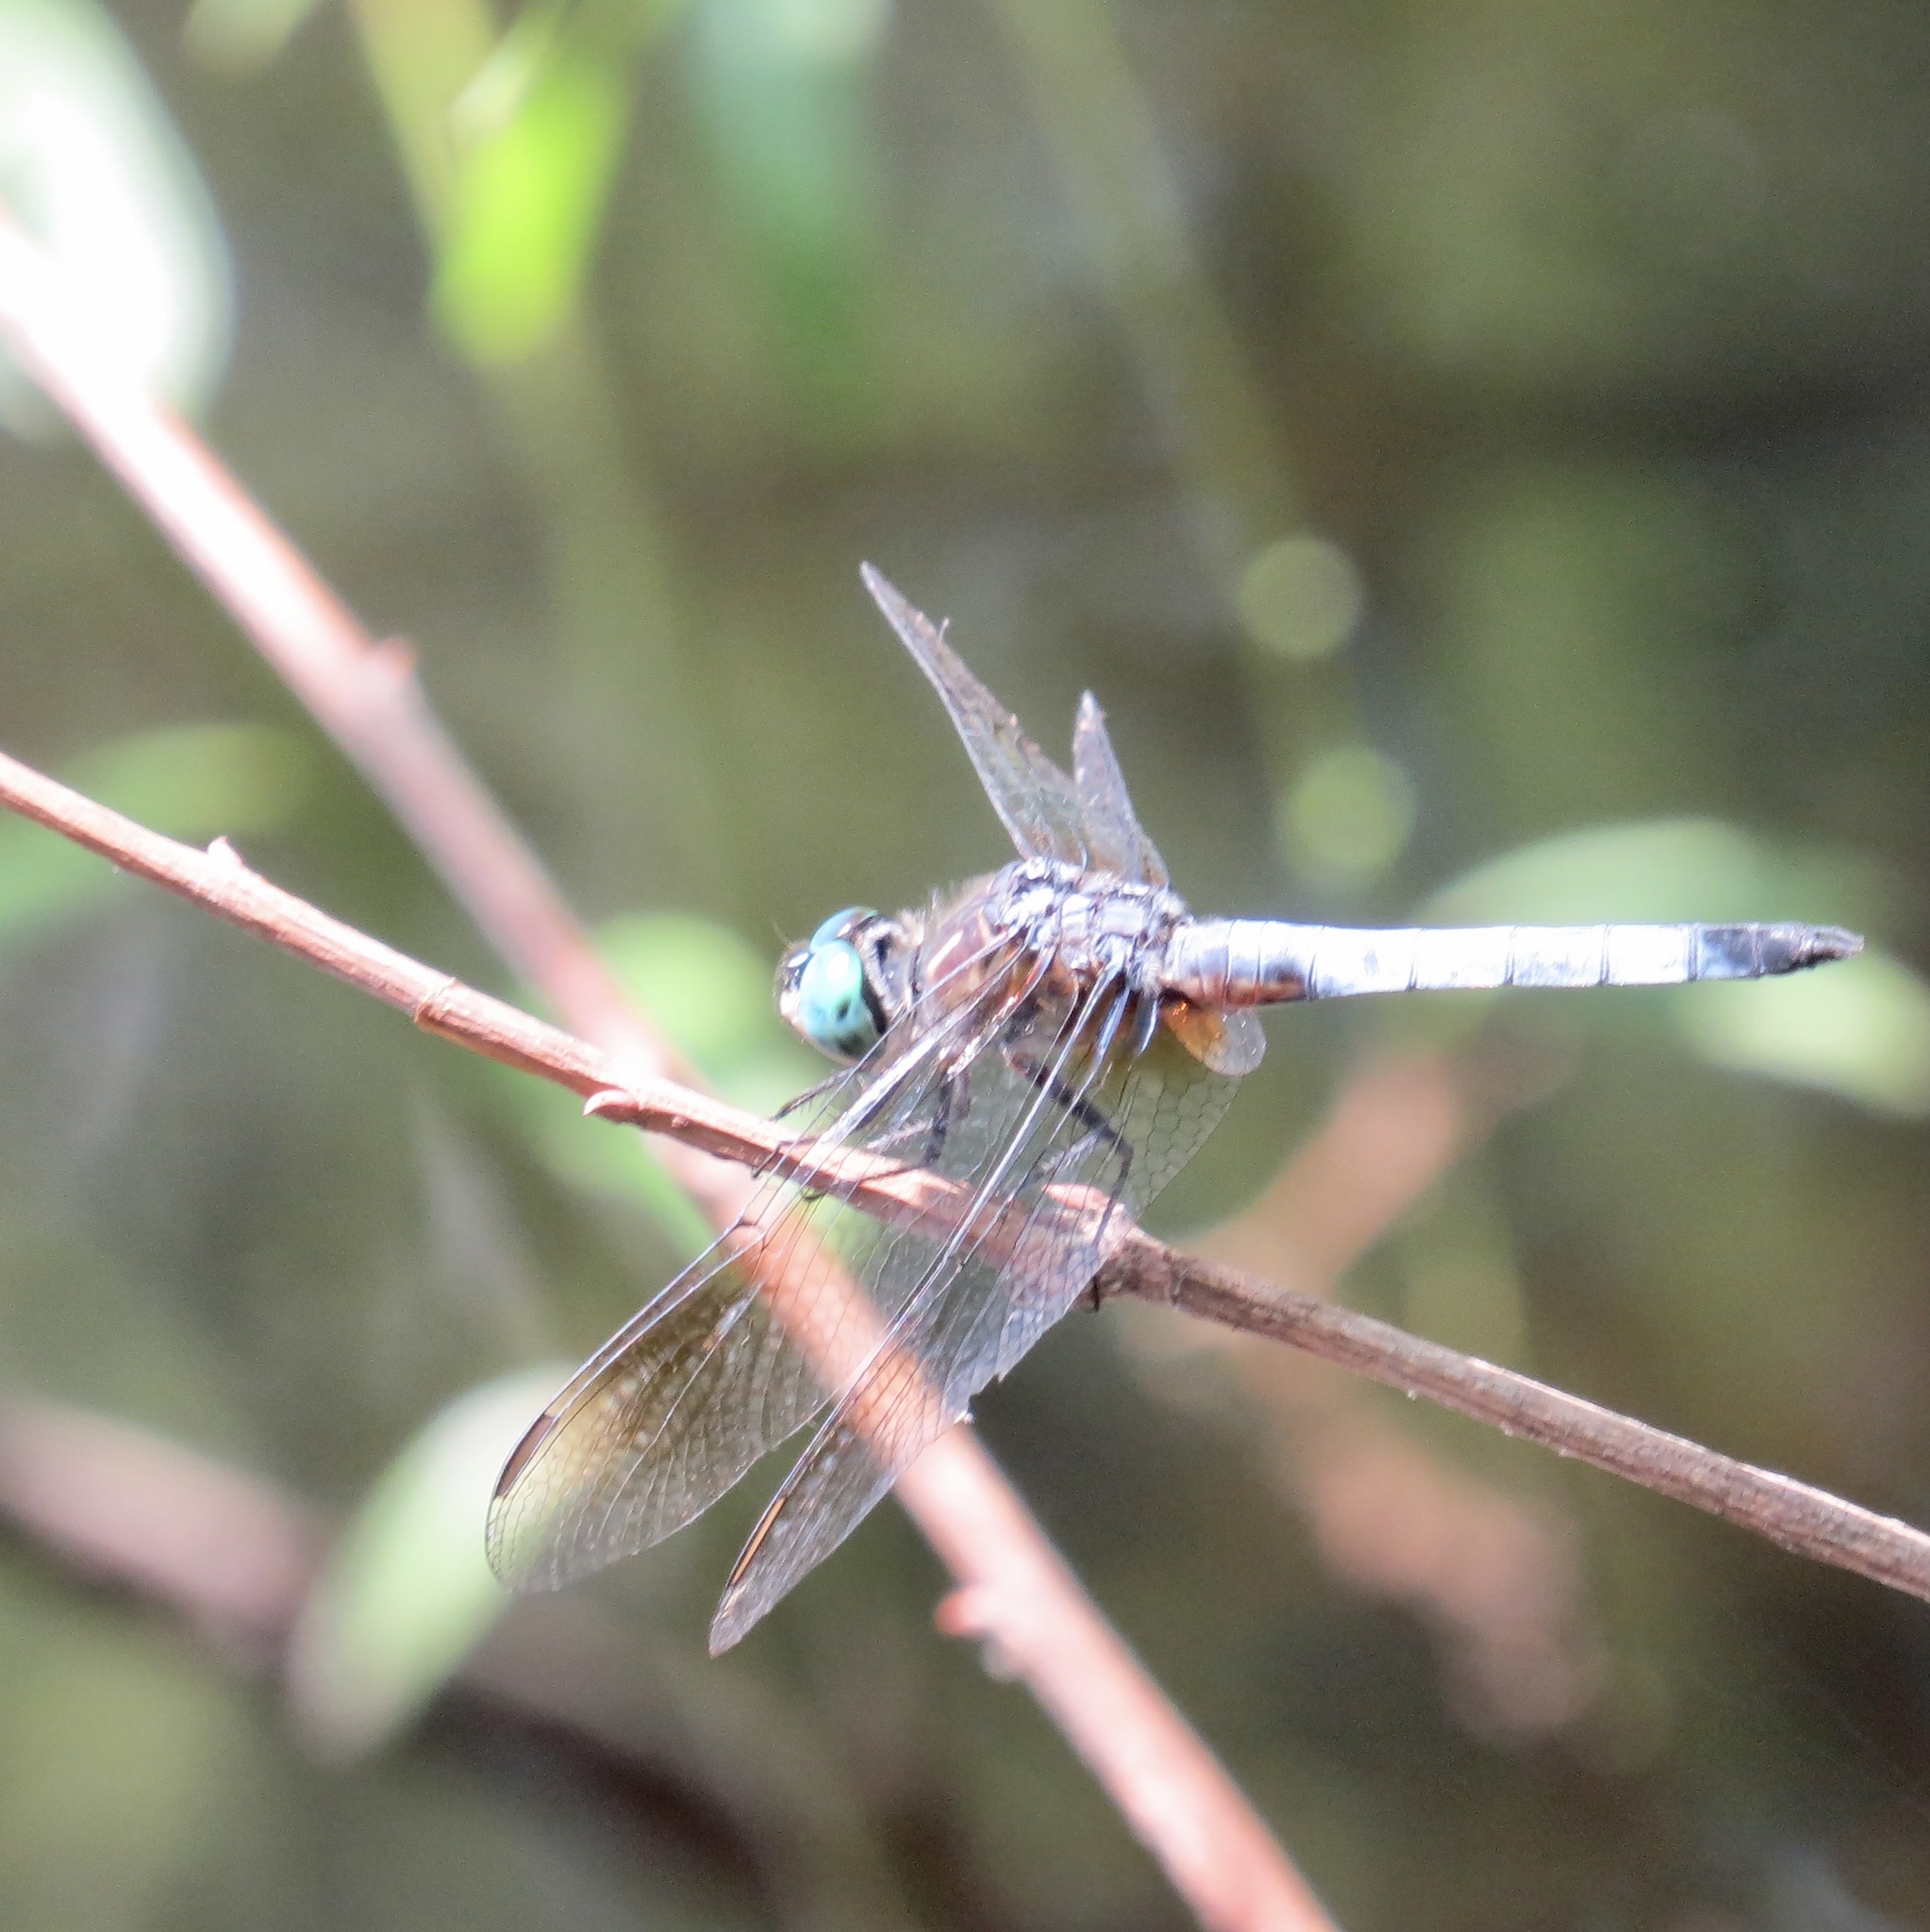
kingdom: Animalia
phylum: Arthropoda
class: Insecta
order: Odonata
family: Libellulidae
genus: Pachydiplax
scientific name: Pachydiplax longipennis
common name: Blue dasher
